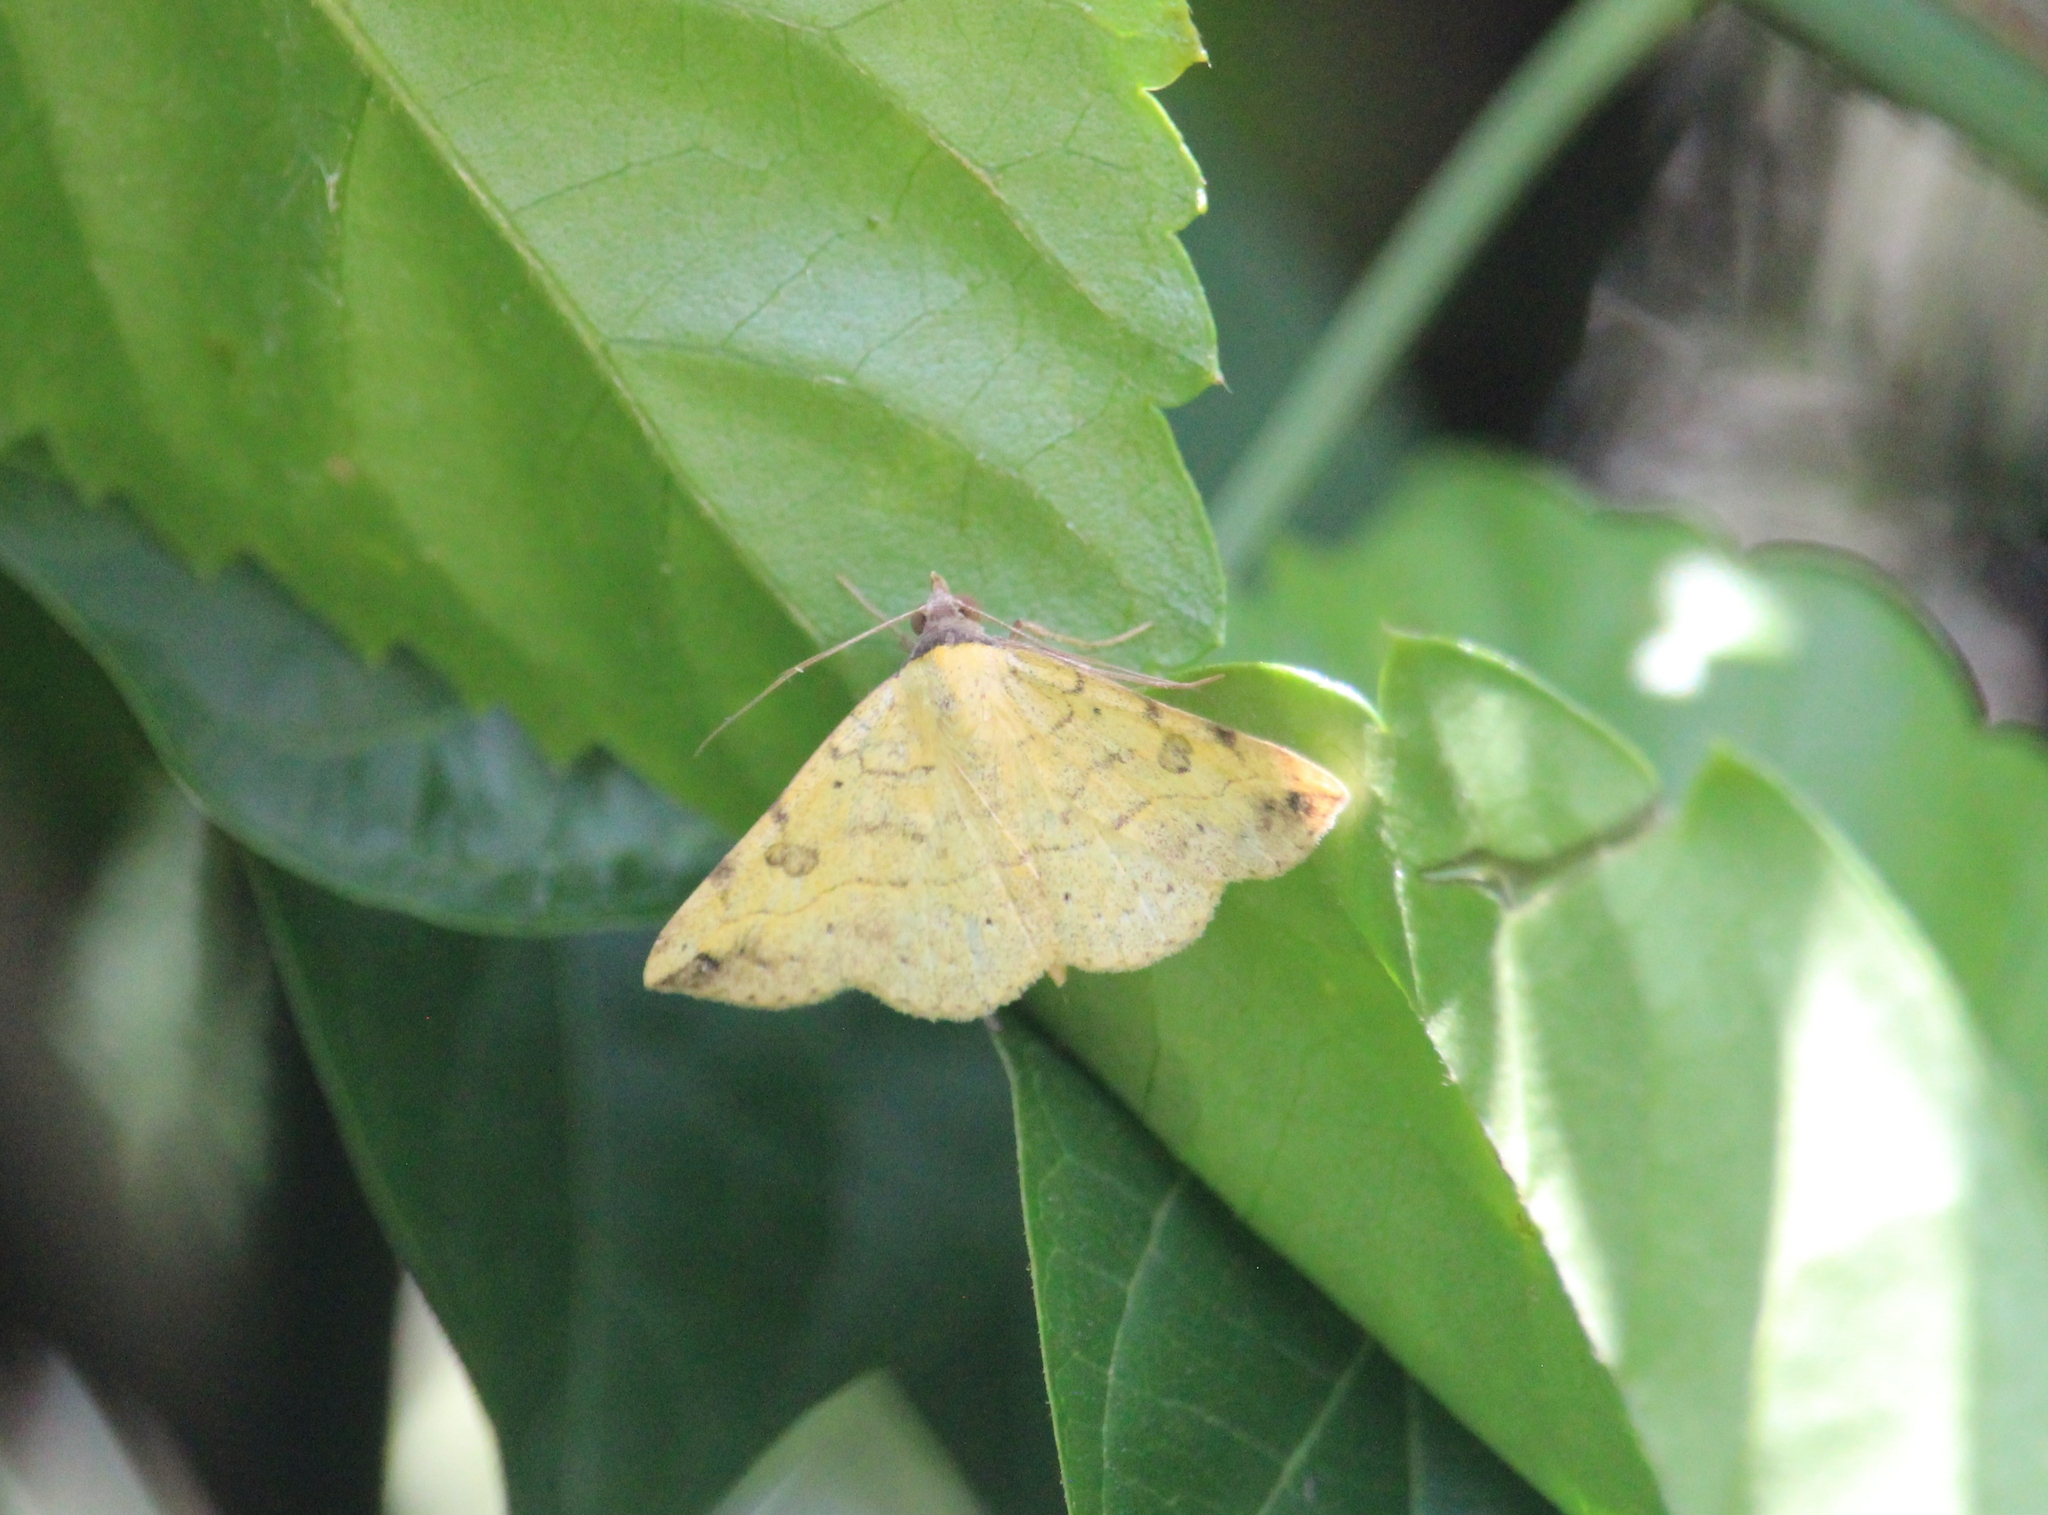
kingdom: Animalia
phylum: Arthropoda
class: Insecta
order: Lepidoptera
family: Erebidae
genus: Hemeroplanis
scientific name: Hemeroplanis scopulepes
